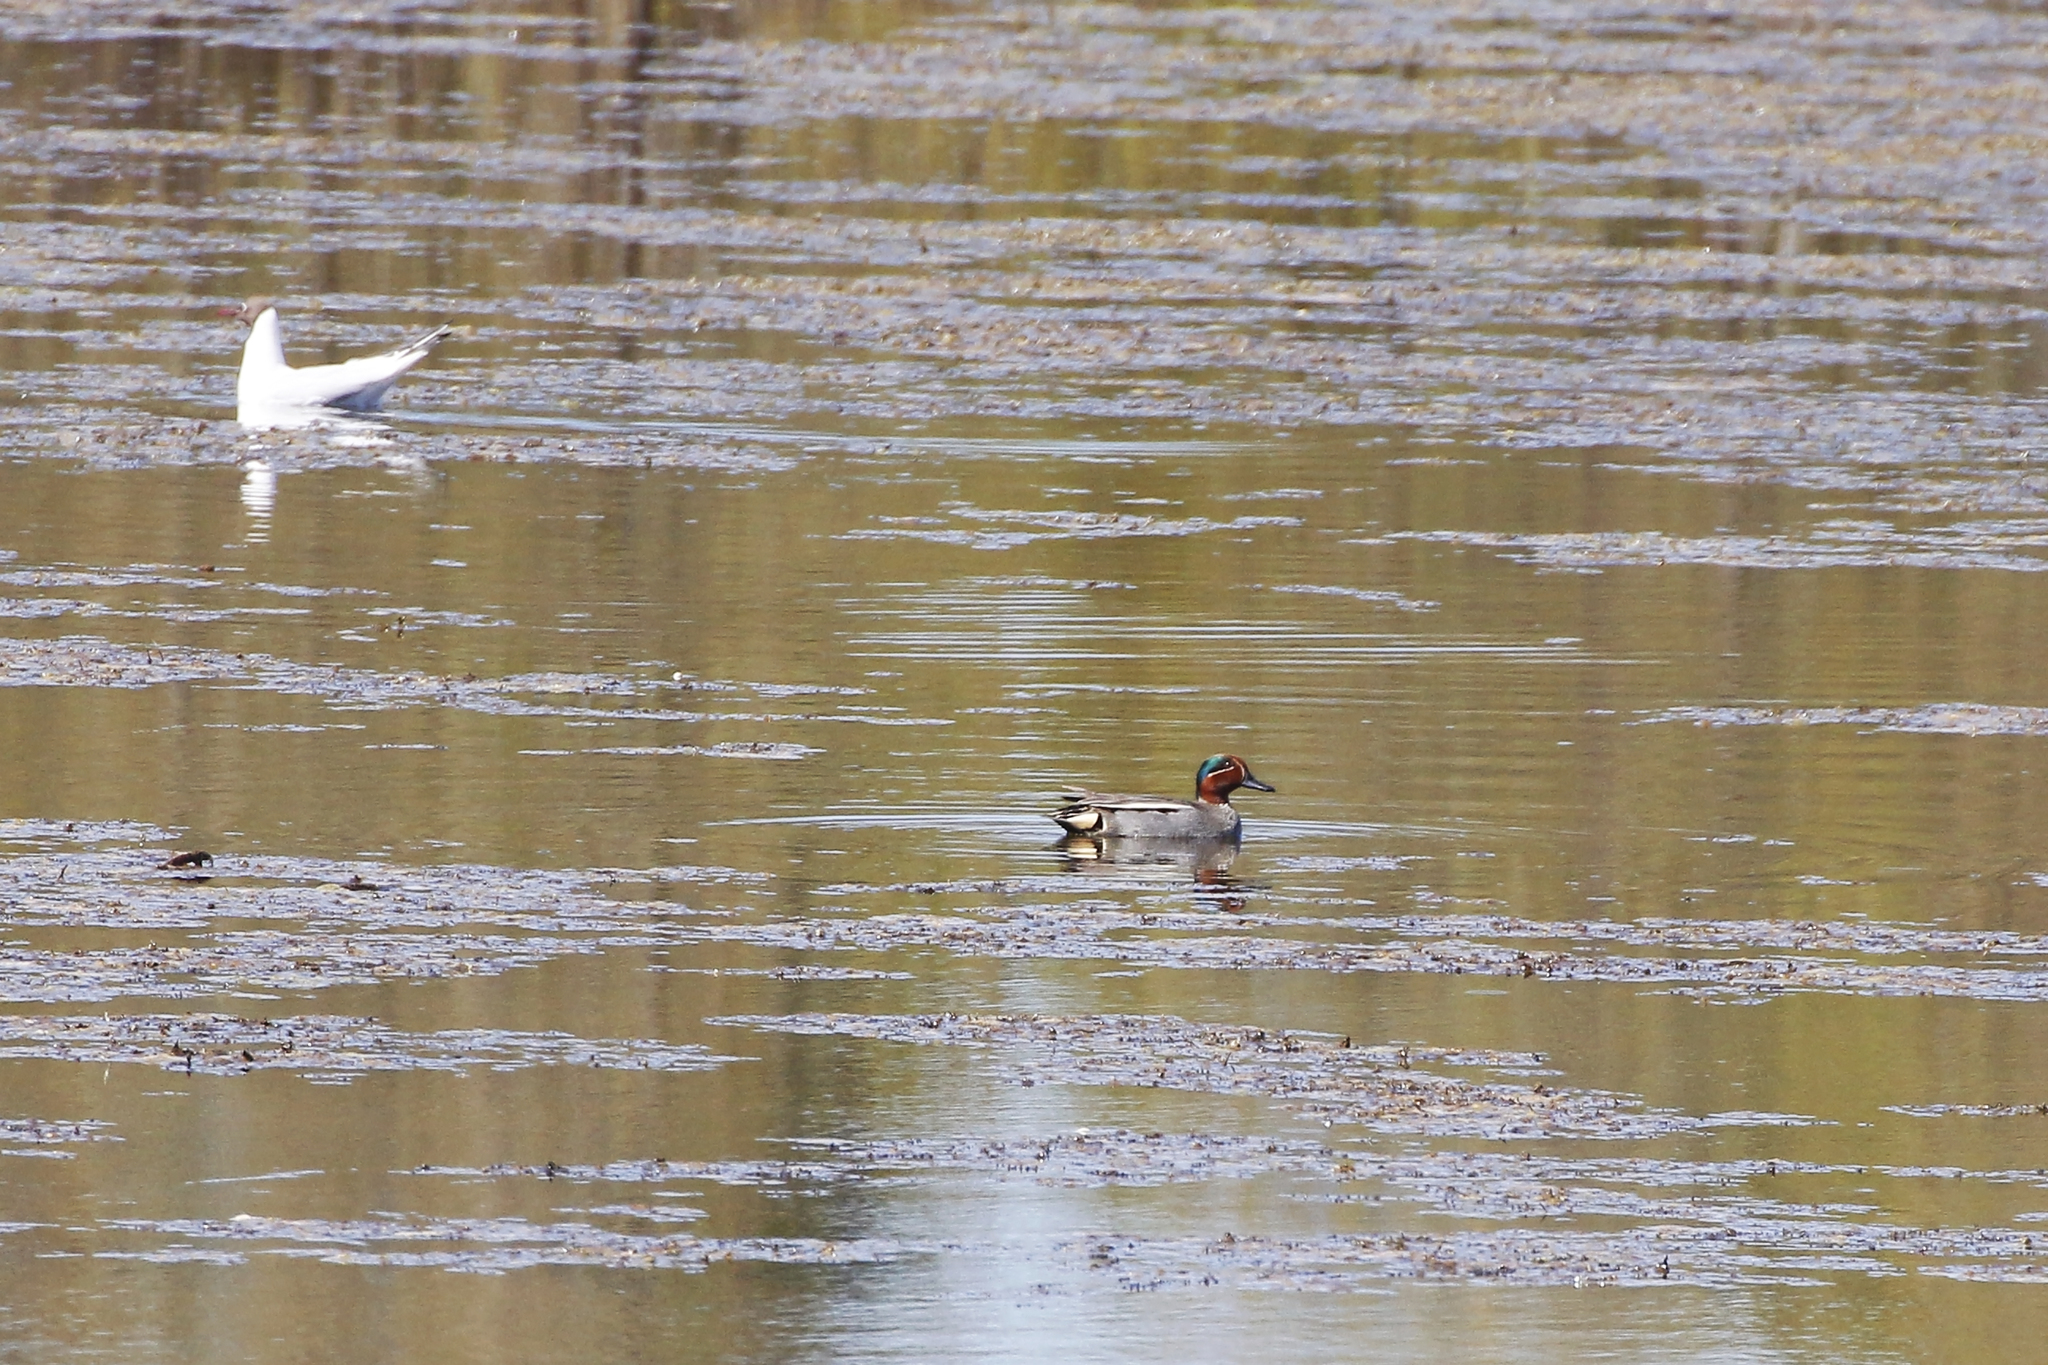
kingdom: Animalia
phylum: Chordata
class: Aves
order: Anseriformes
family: Anatidae
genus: Anas
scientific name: Anas crecca
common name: Eurasian teal
